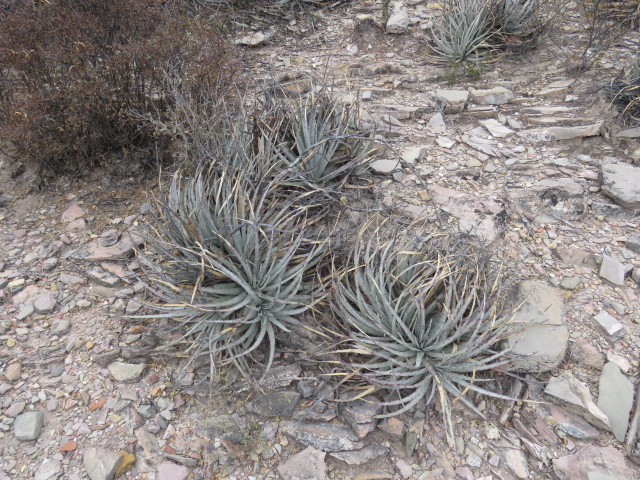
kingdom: Plantae
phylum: Tracheophyta
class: Liliopsida
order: Poales
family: Bromeliaceae
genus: Hechtia
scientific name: Hechtia podantha
